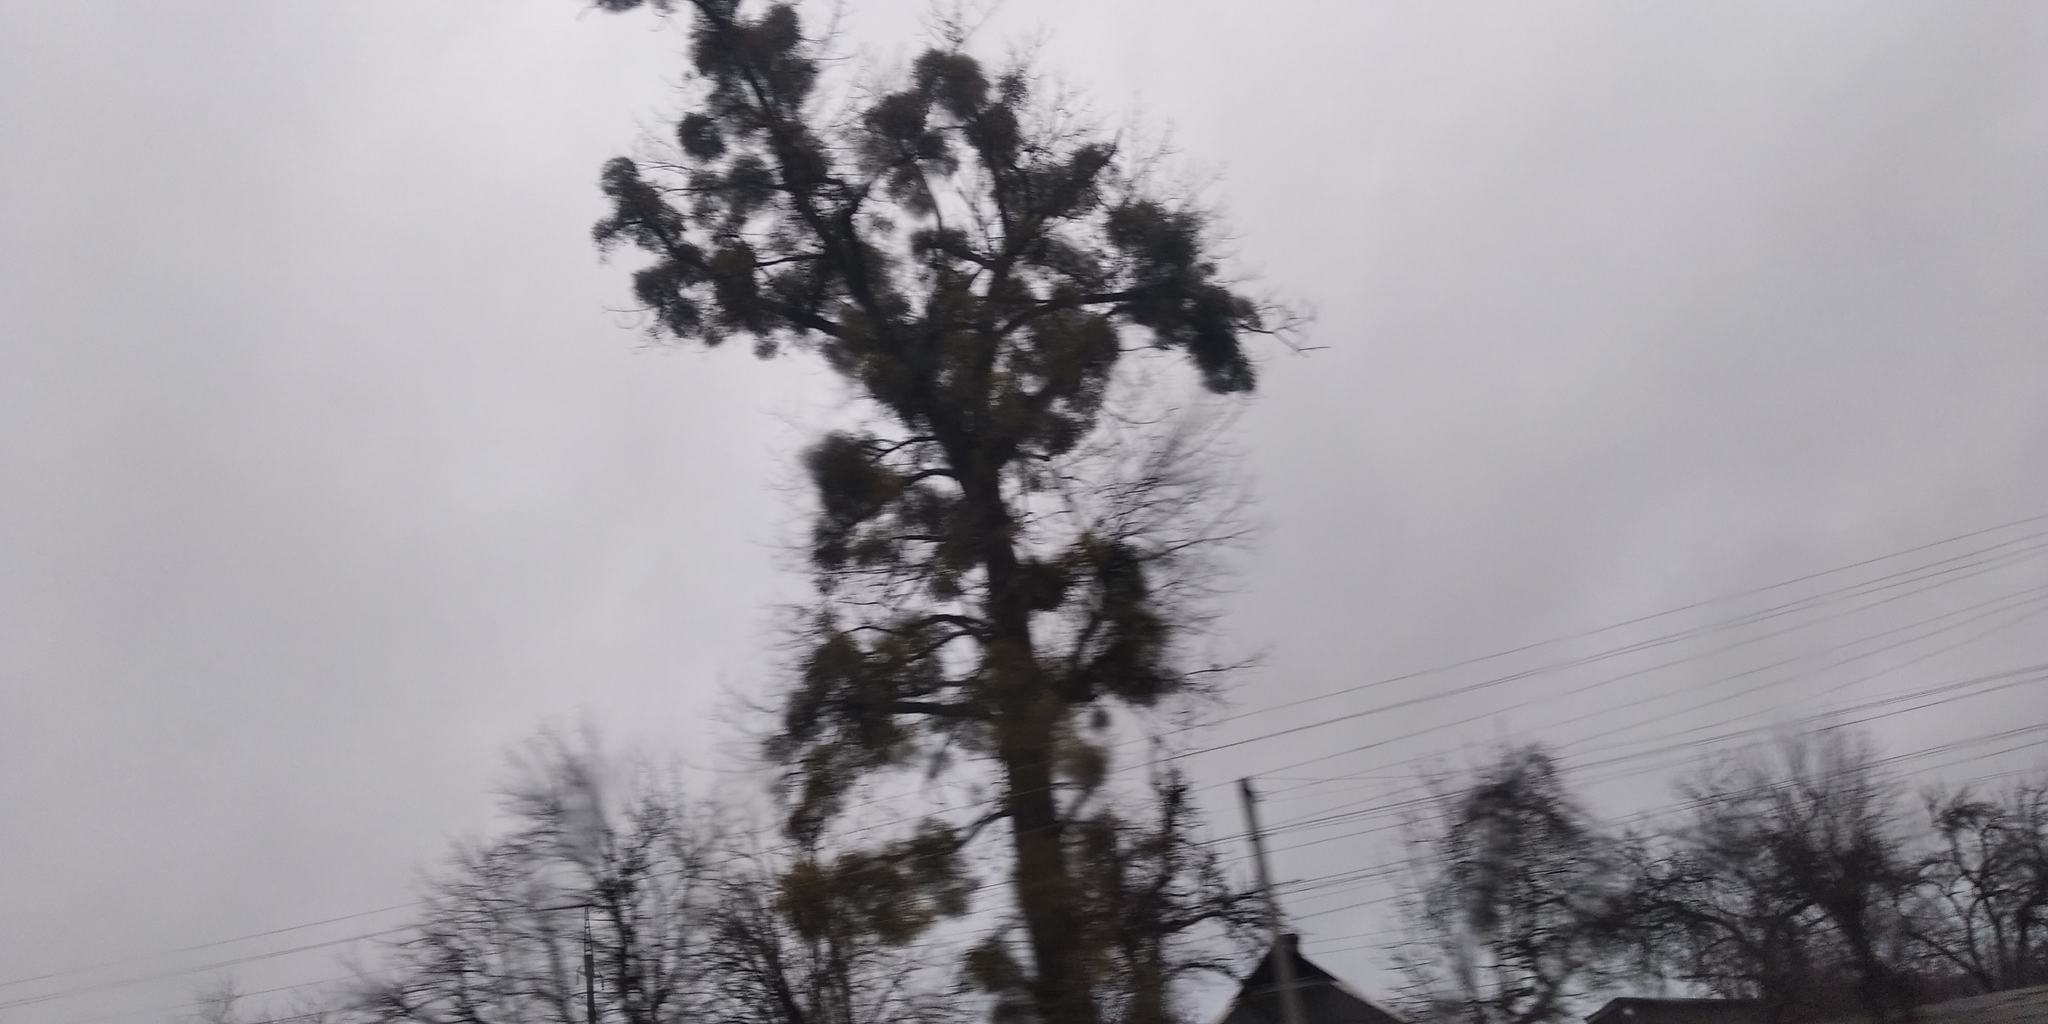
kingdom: Plantae
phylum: Tracheophyta
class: Magnoliopsida
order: Santalales
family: Viscaceae
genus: Viscum
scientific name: Viscum album
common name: Mistletoe
